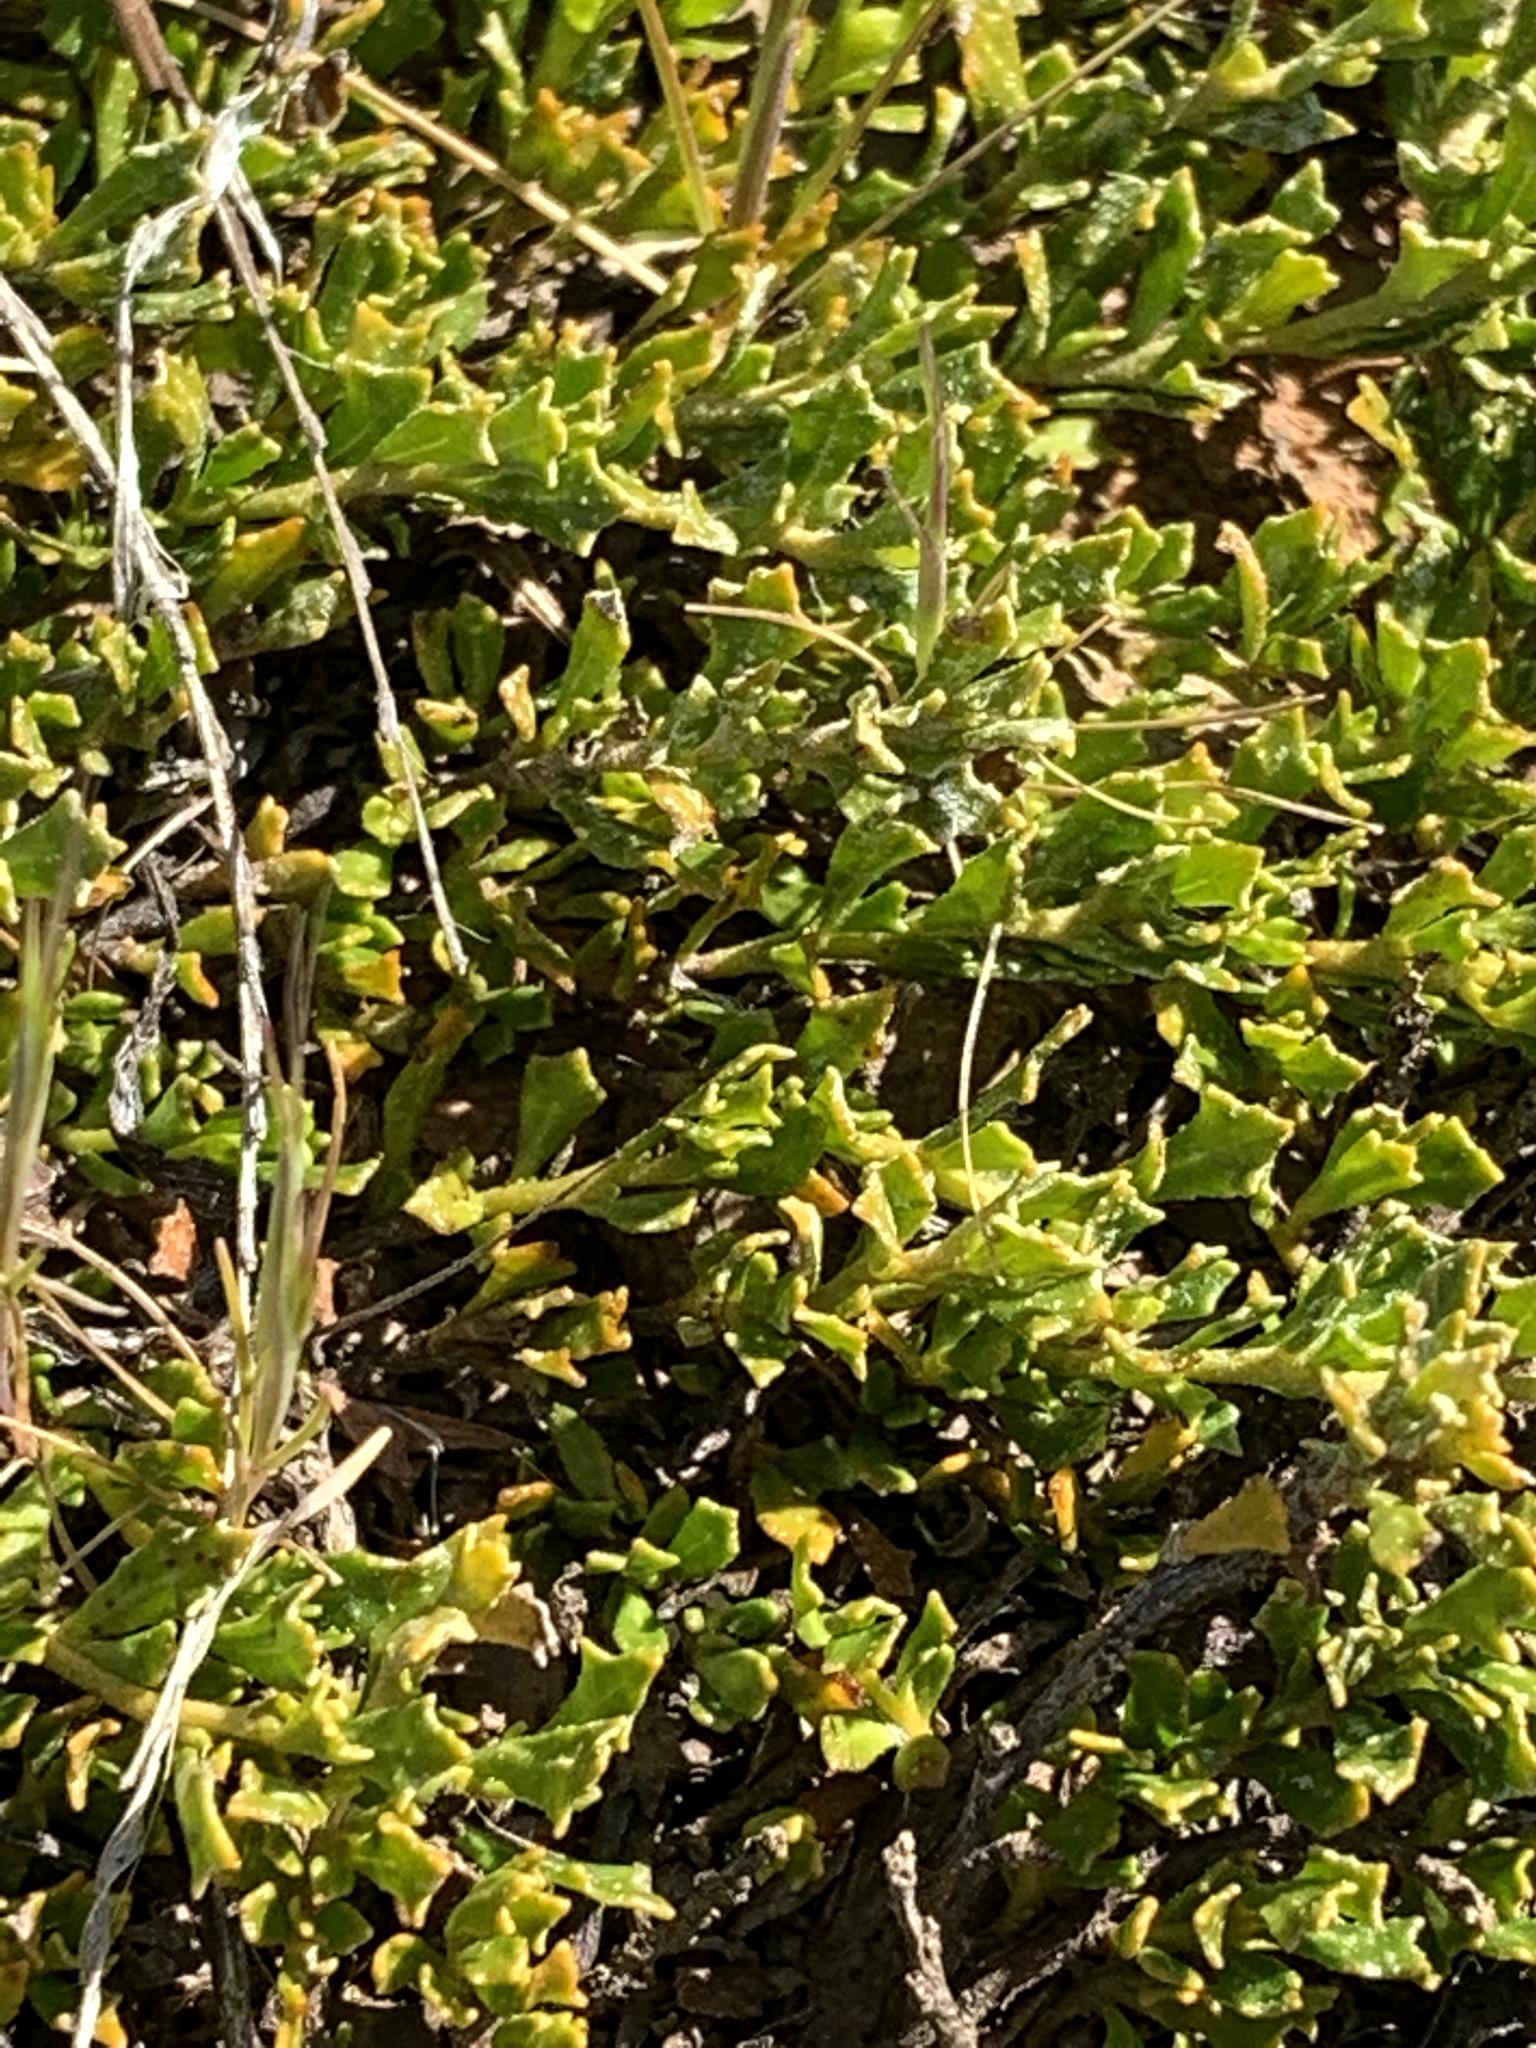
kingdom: Plantae
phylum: Tracheophyta
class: Magnoliopsida
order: Sapindales
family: Sapindaceae
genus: Dodonaea
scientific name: Dodonaea procumbens
